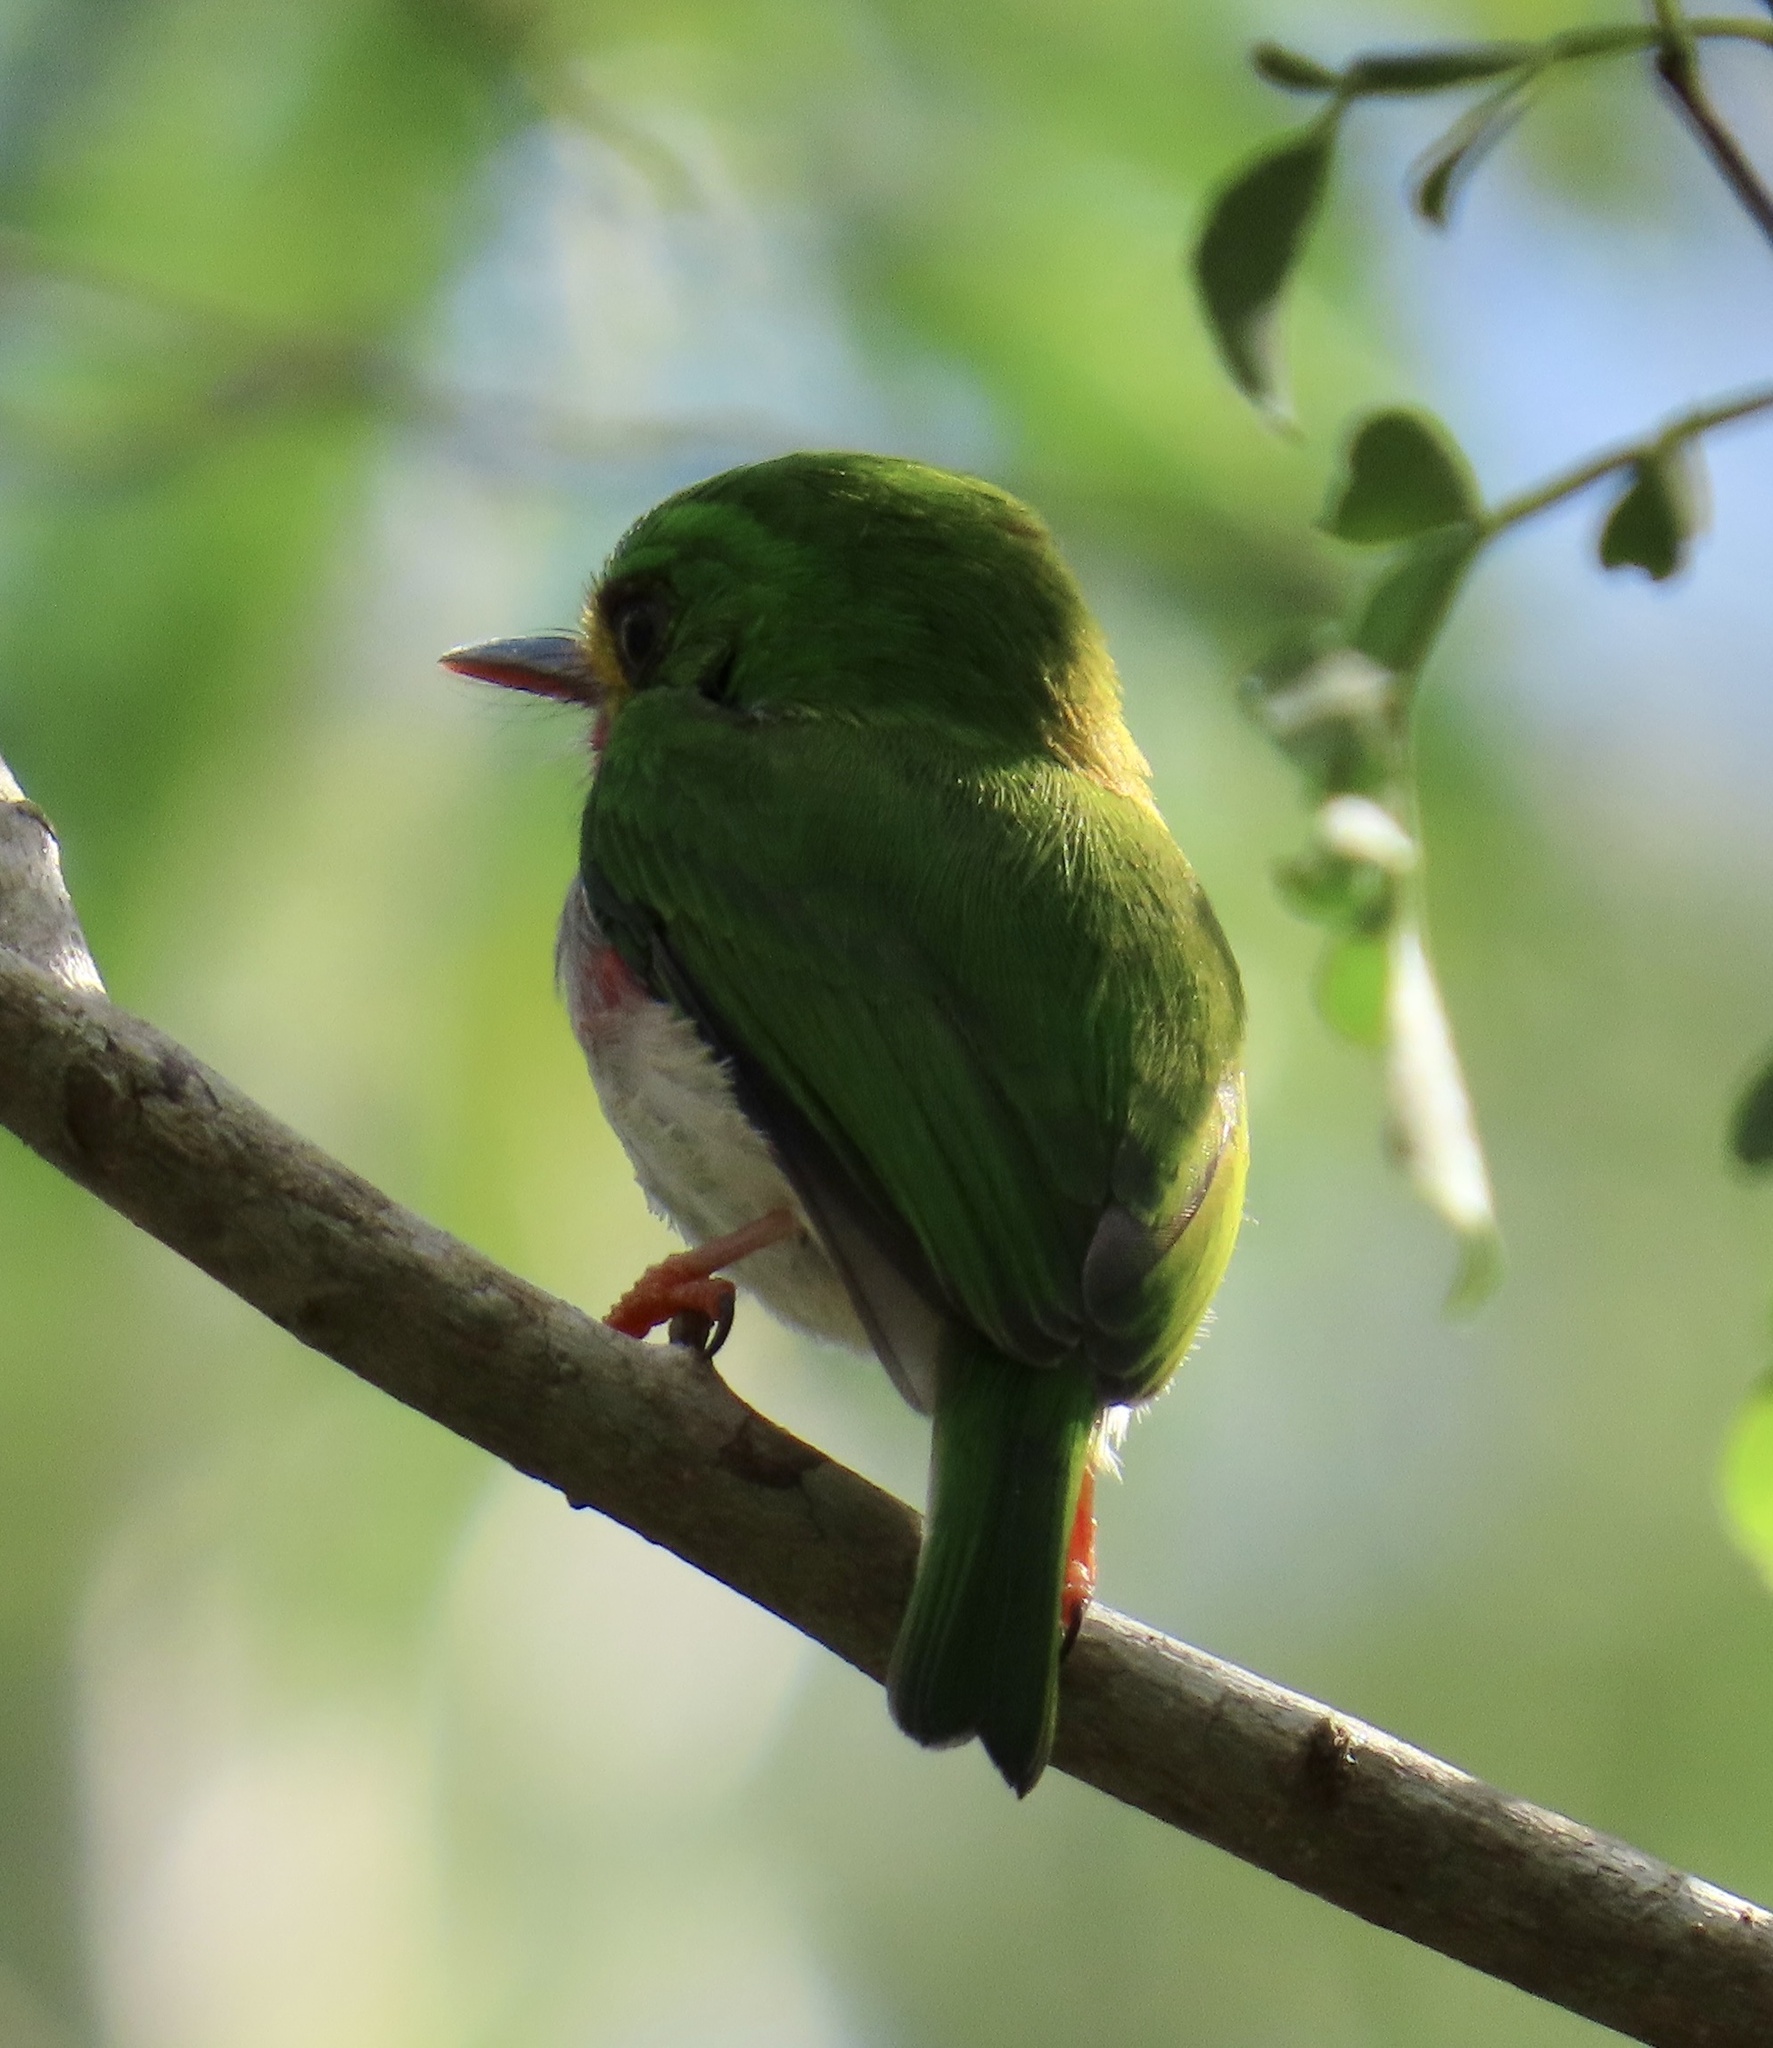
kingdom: Animalia
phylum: Chordata
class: Aves
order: Coraciiformes
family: Todidae
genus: Todus
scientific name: Todus multicolor
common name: Cuban tody
